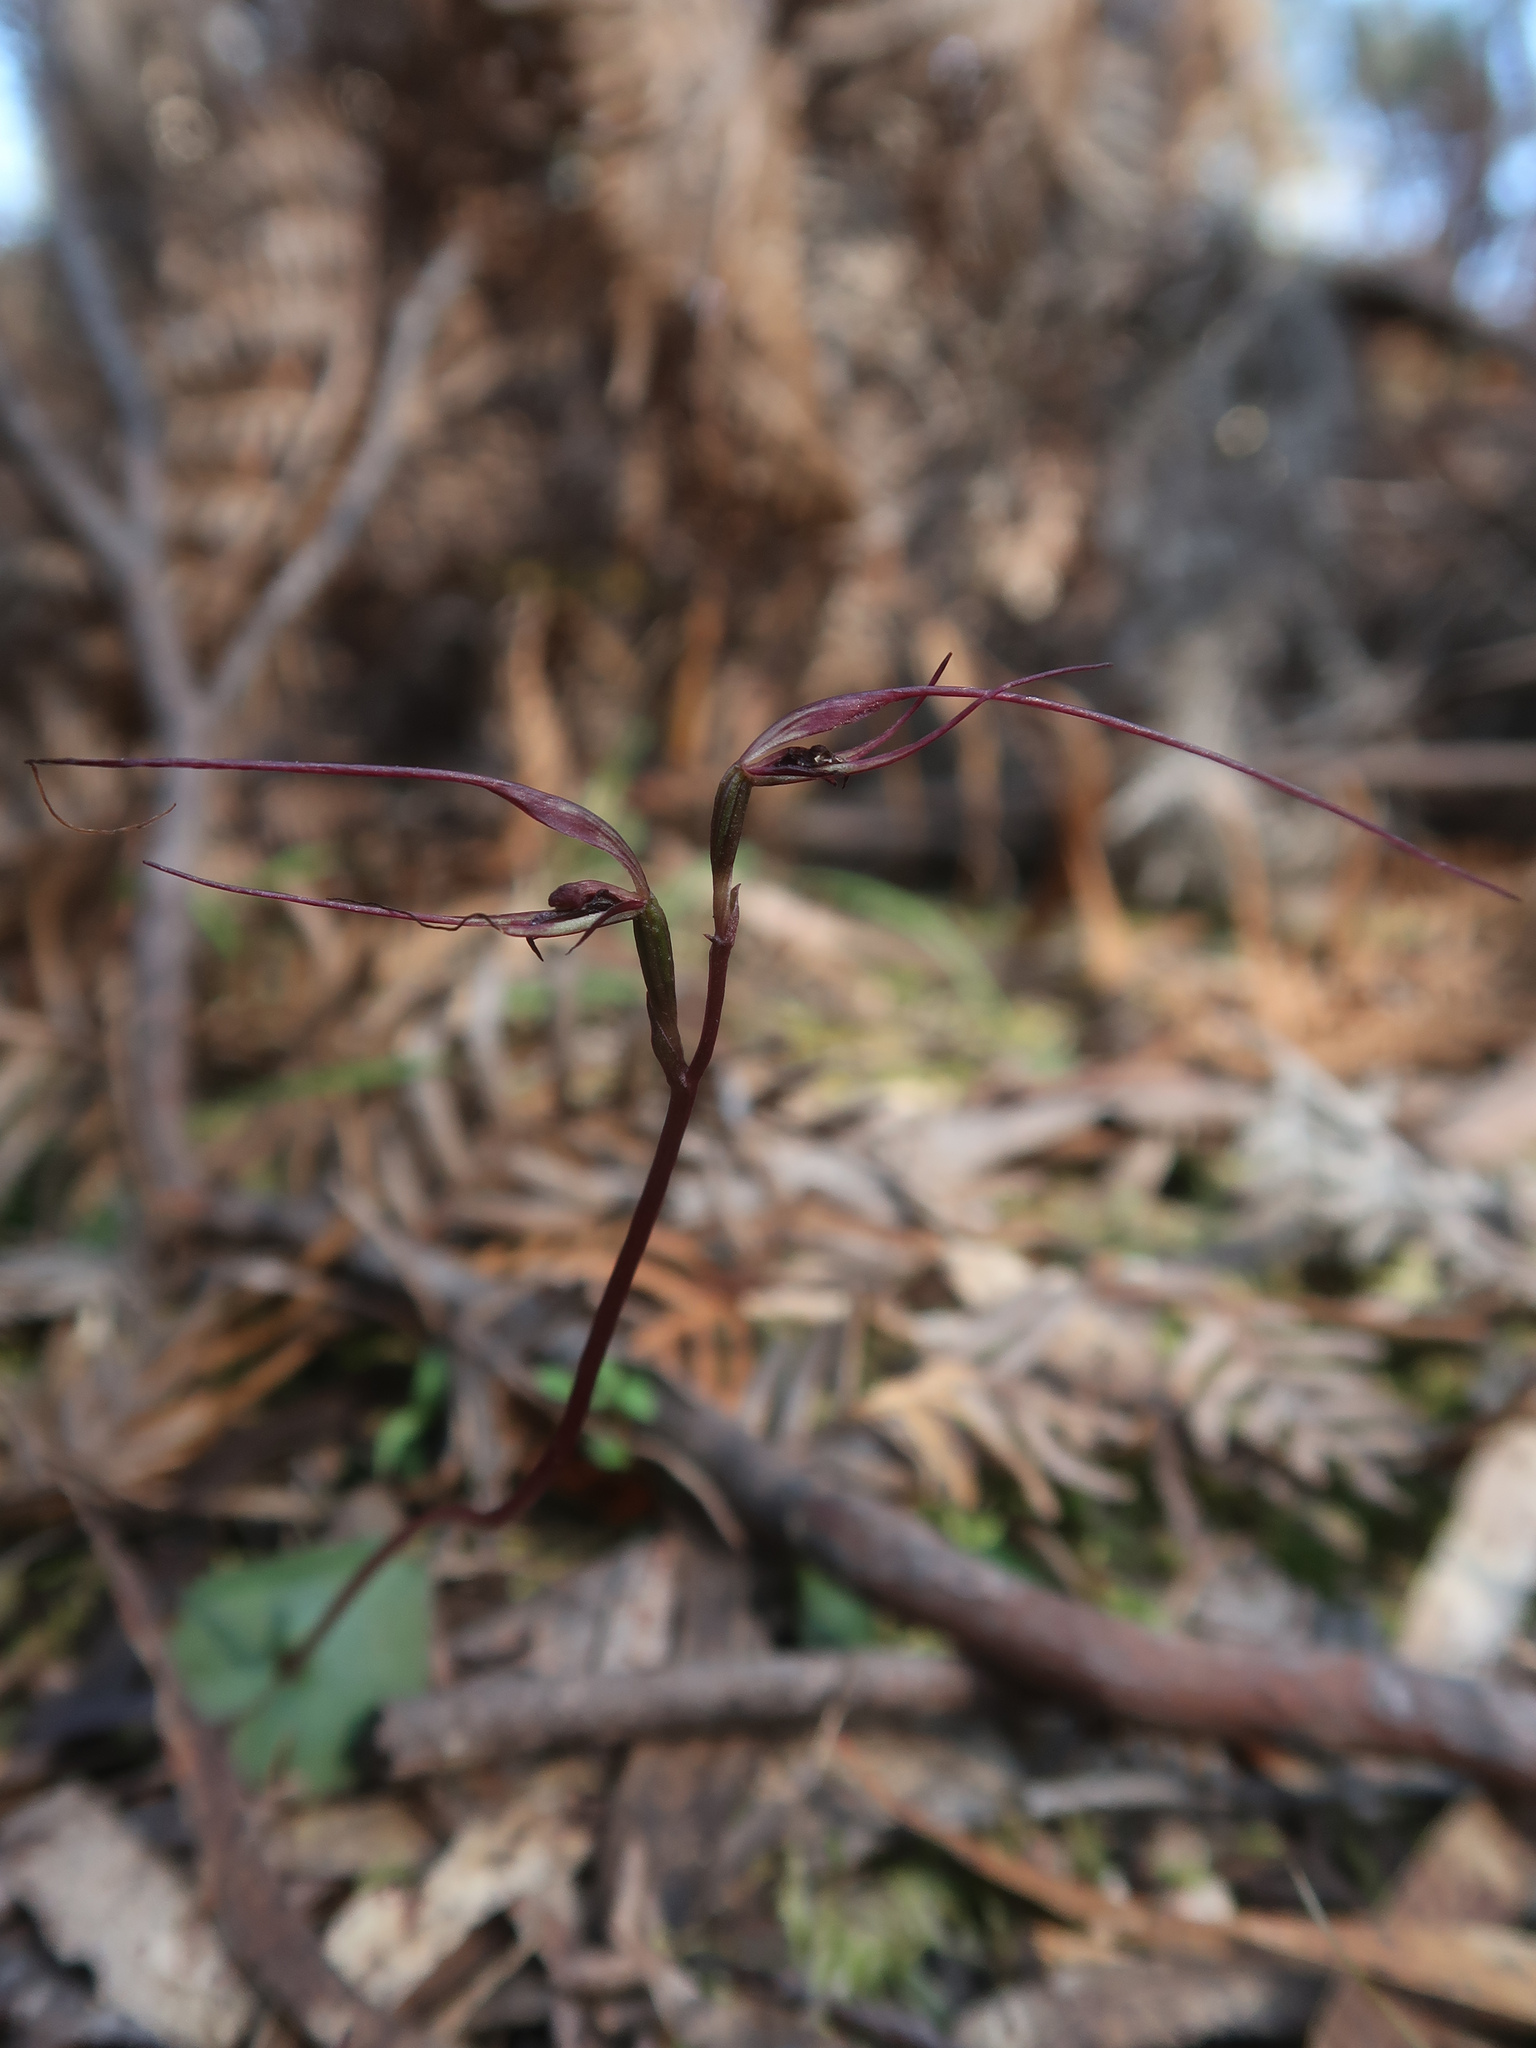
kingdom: Plantae
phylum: Tracheophyta
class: Liliopsida
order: Asparagales
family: Orchidaceae
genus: Acianthus
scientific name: Acianthus caudatus
